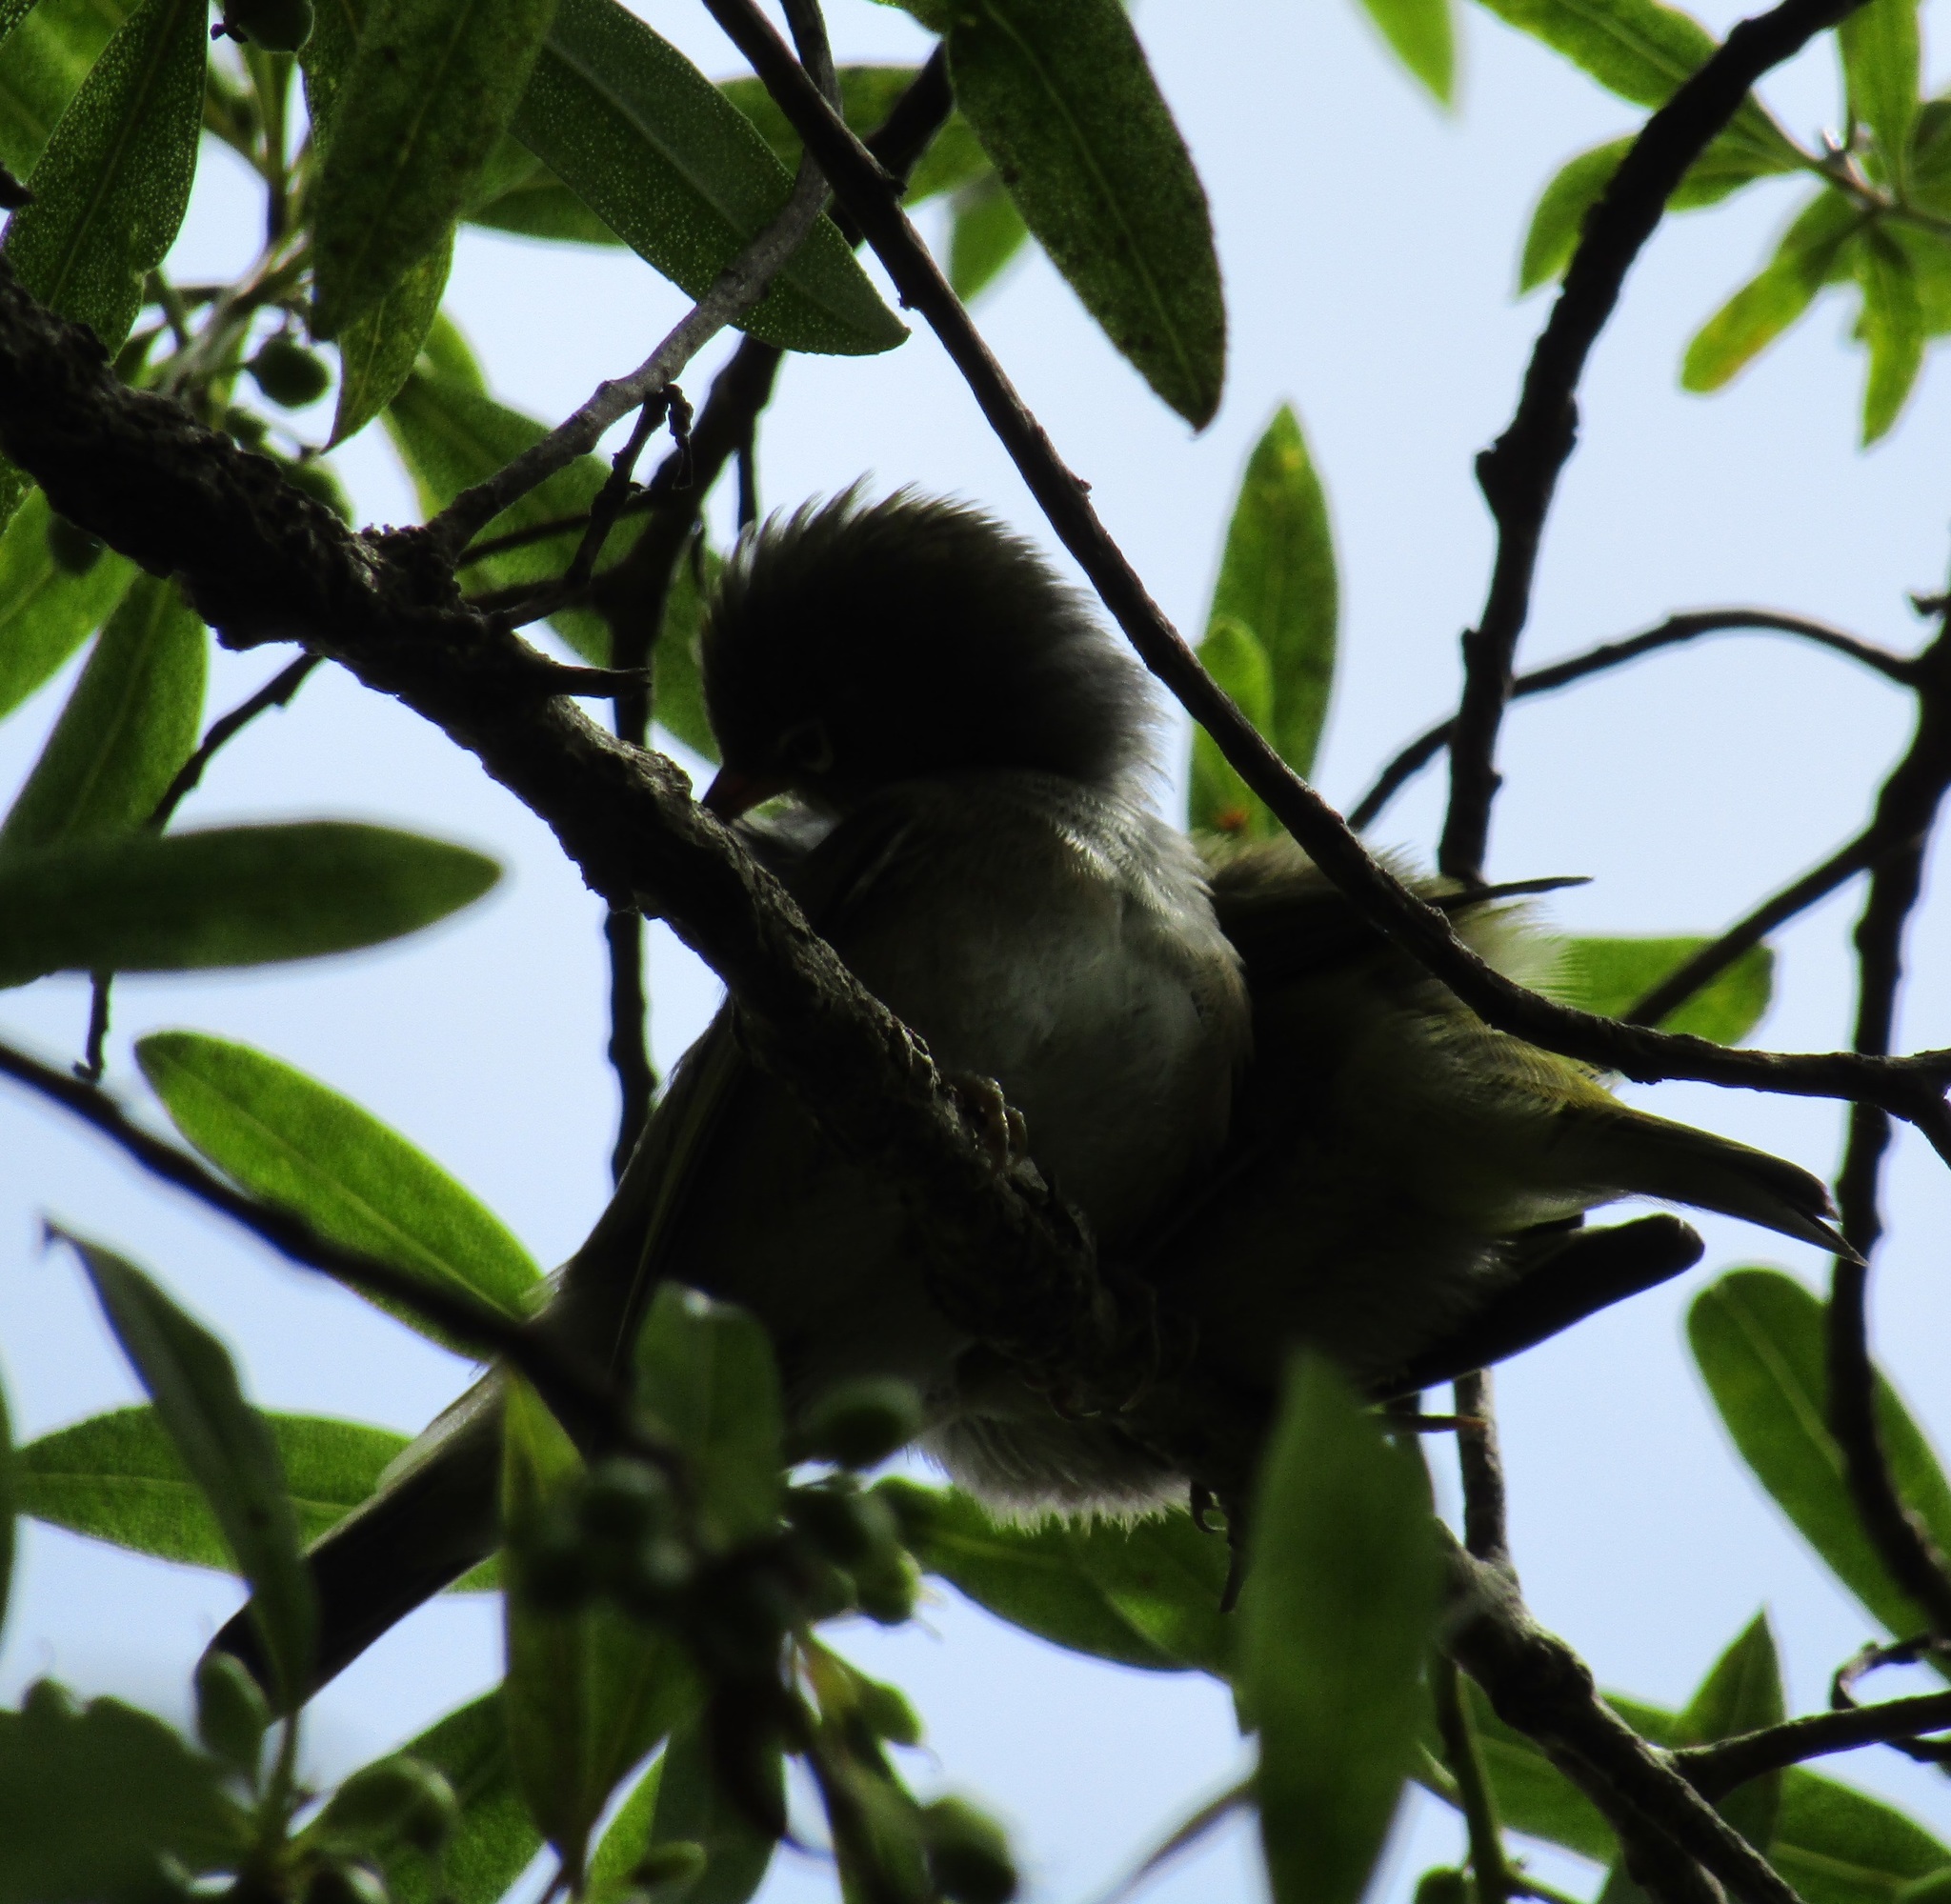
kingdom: Animalia
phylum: Chordata
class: Aves
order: Passeriformes
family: Zosteropidae
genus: Zosterops
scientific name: Zosterops lateralis
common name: Silvereye
